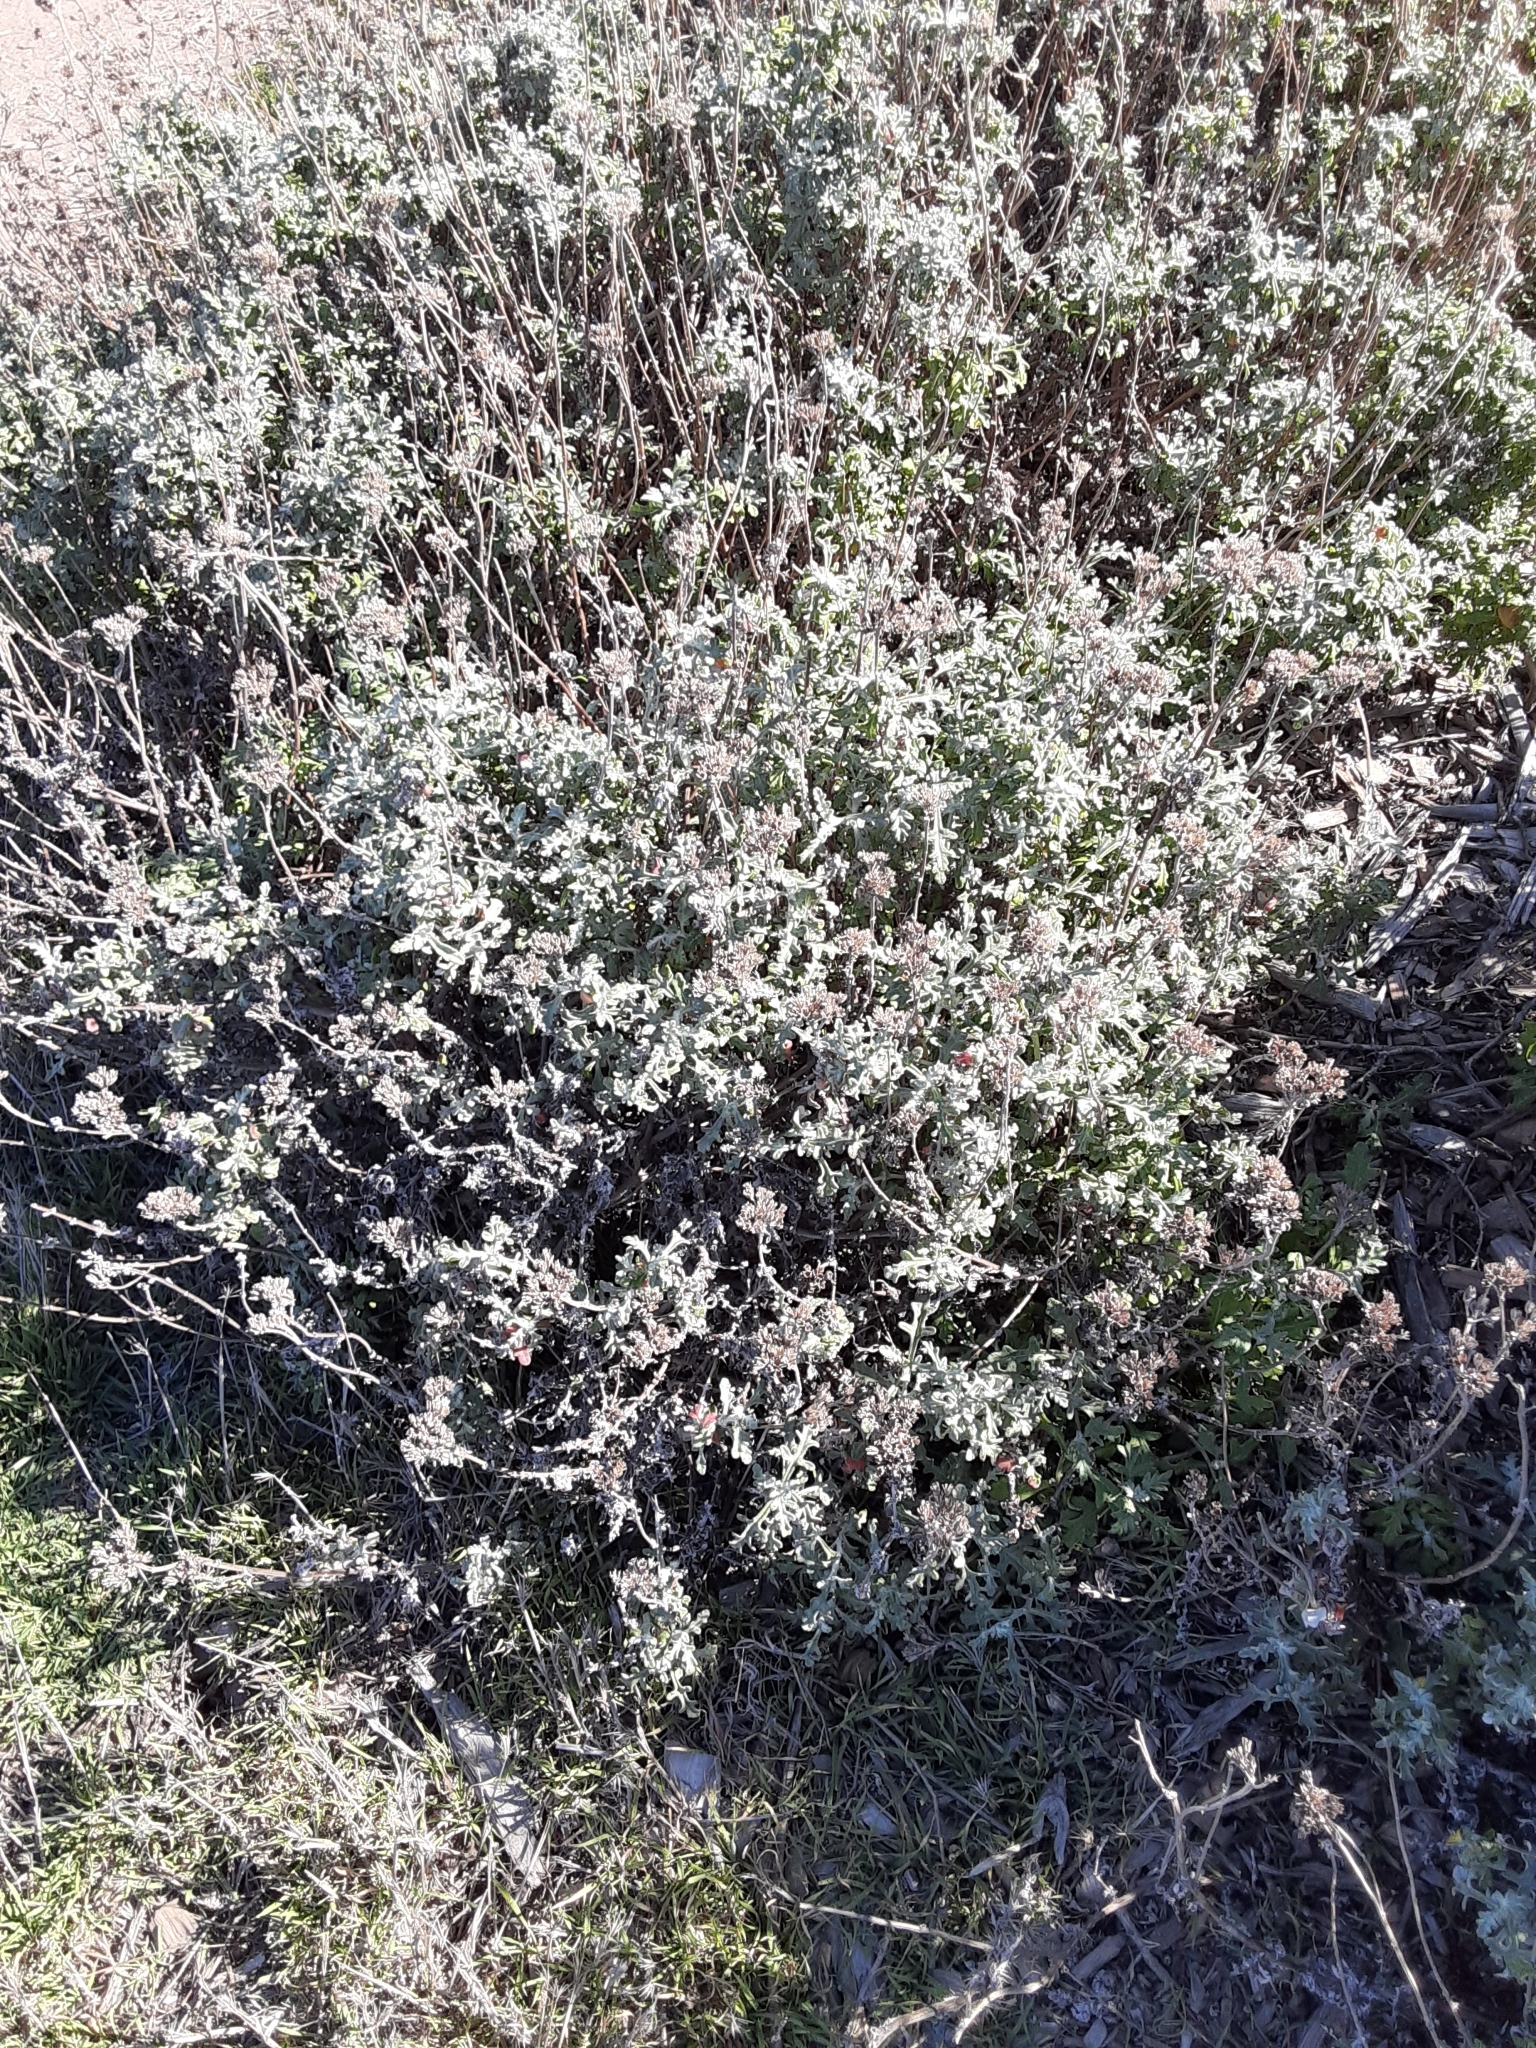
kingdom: Plantae
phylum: Tracheophyta
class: Magnoliopsida
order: Asterales
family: Asteraceae
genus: Eriophyllum
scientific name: Eriophyllum staechadifolium
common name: Lizardtail
